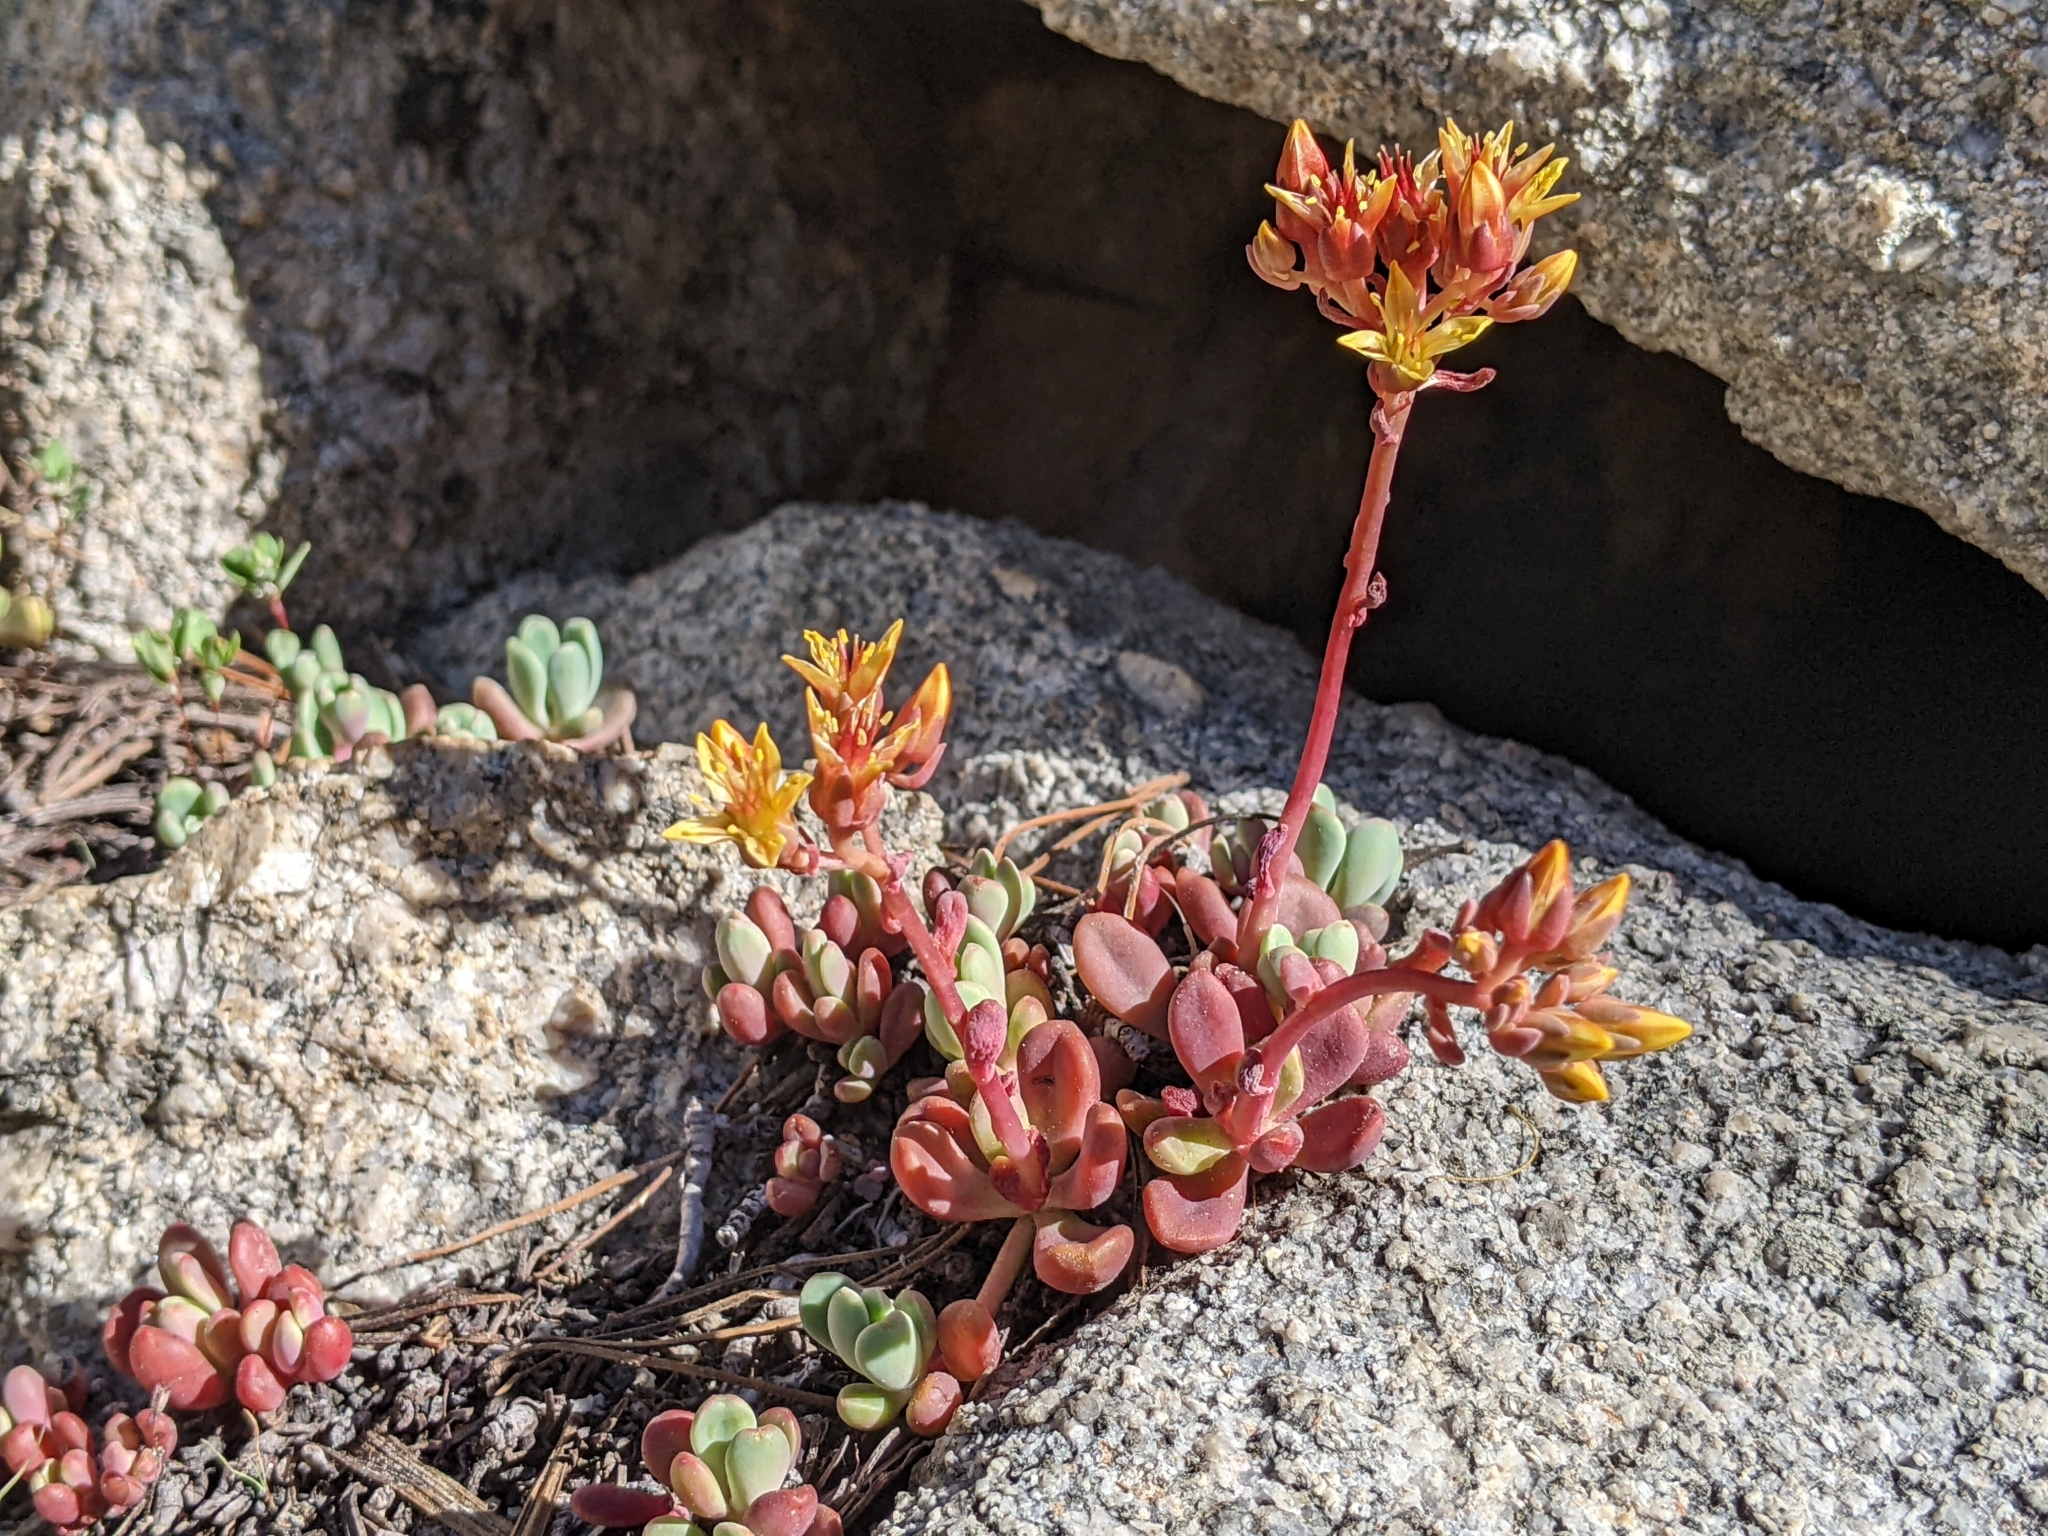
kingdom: Plantae
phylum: Tracheophyta
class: Magnoliopsida
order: Saxifragales
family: Crassulaceae
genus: Sedum
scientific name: Sedum obtusatum
